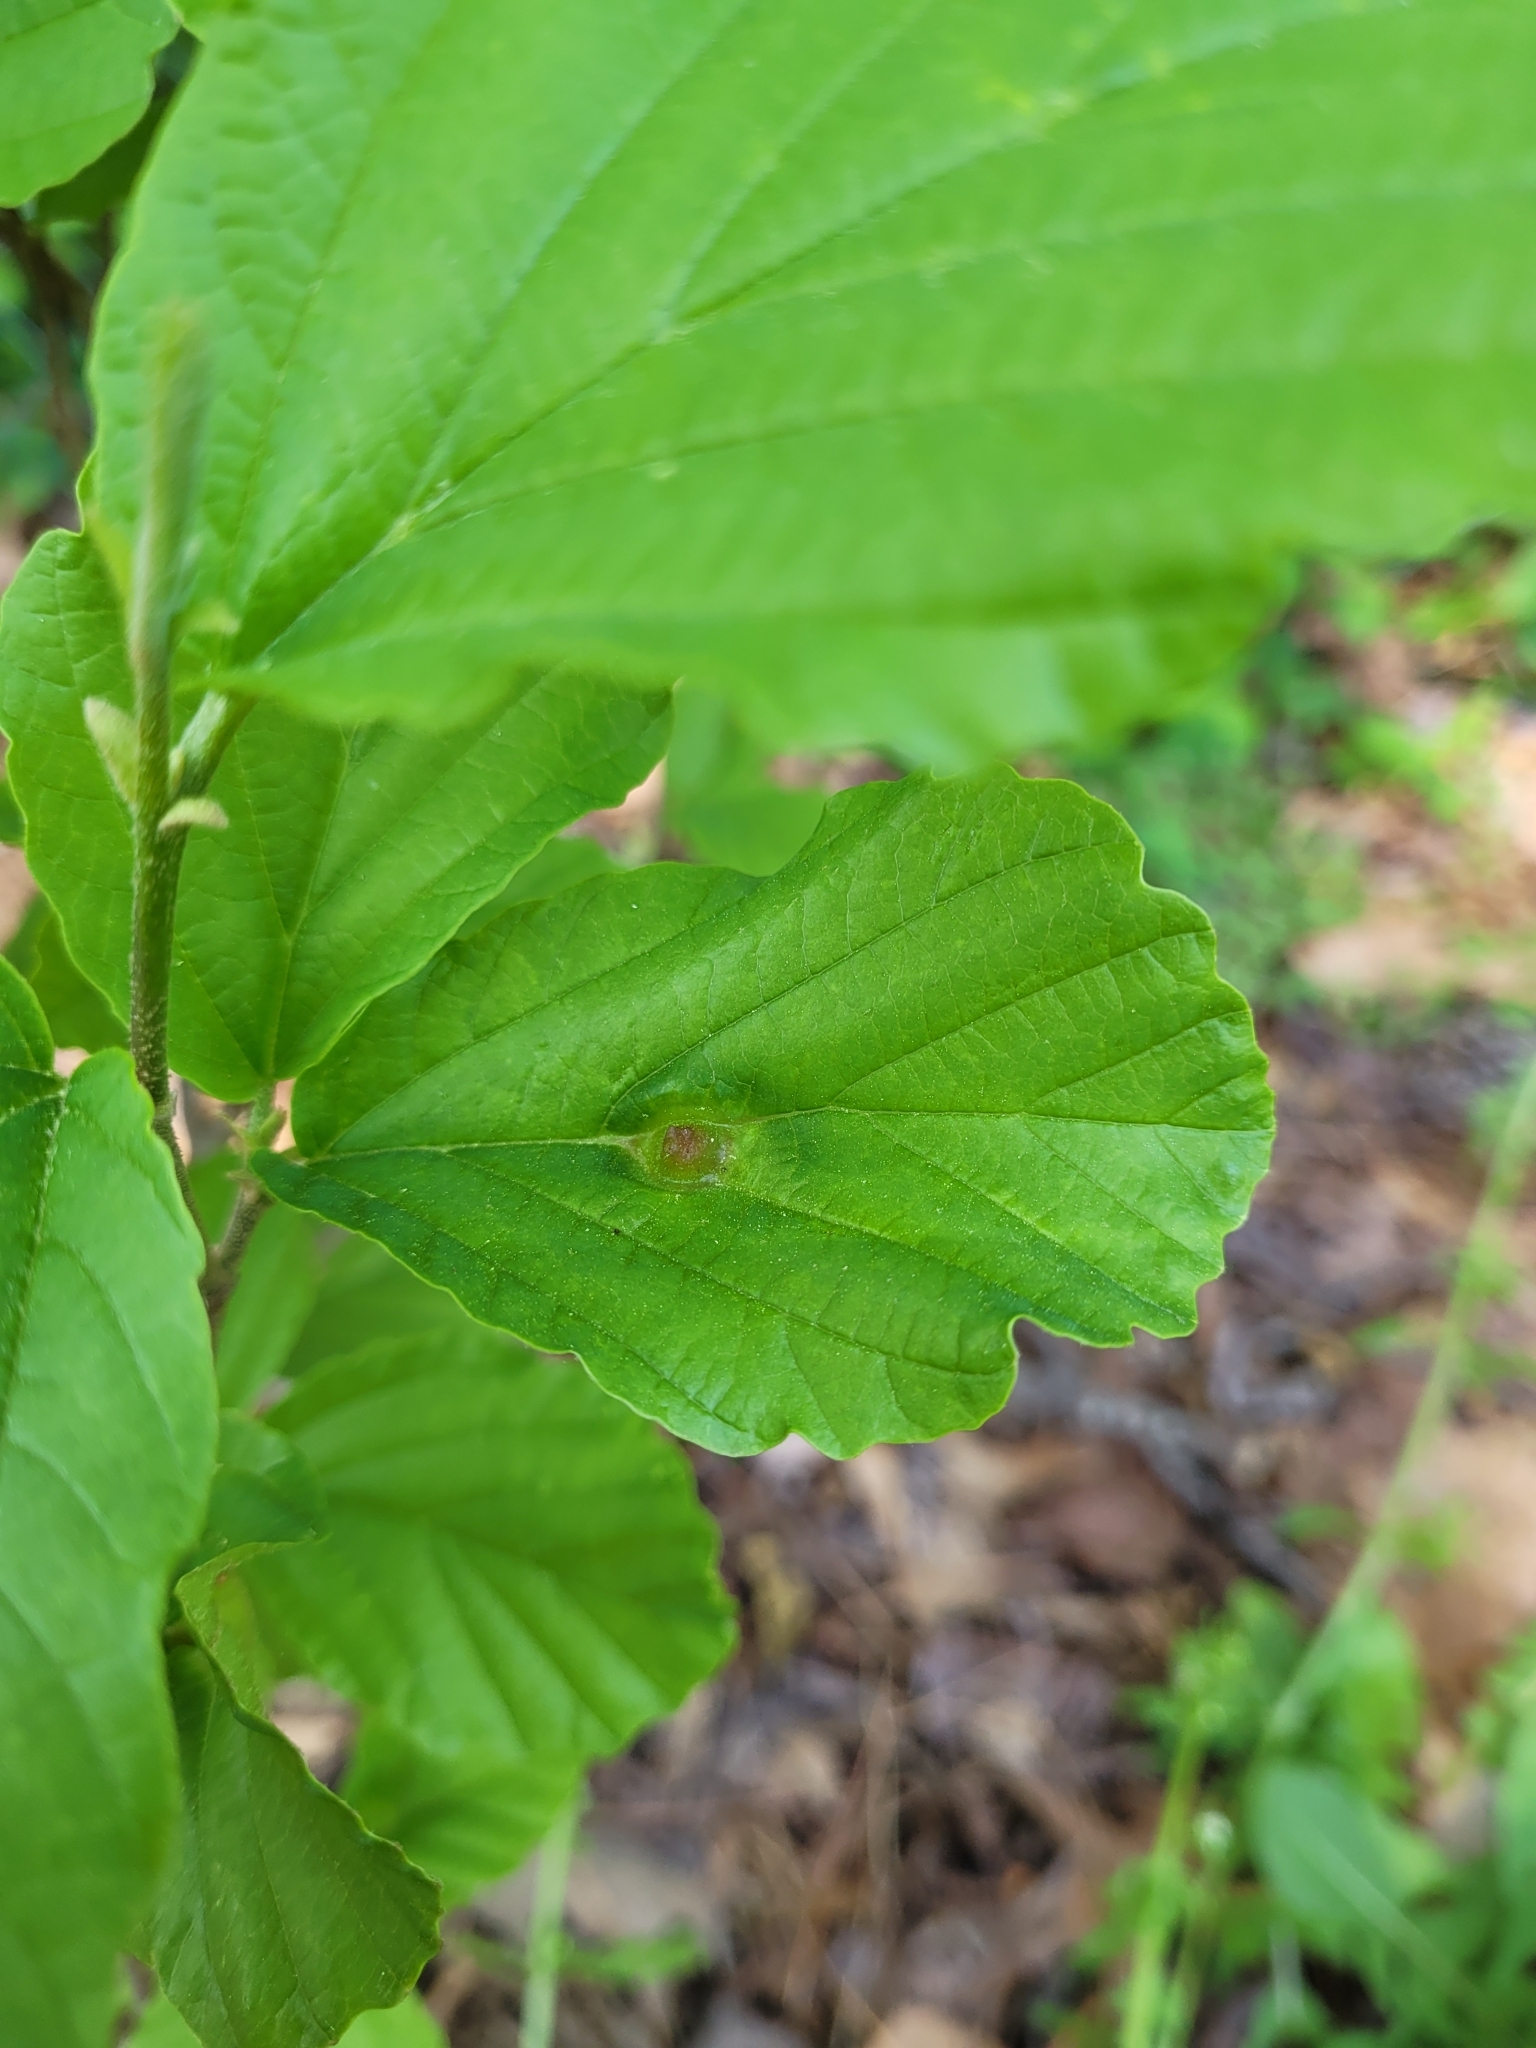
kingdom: Animalia
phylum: Arthropoda
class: Insecta
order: Hemiptera
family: Aphididae
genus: Hormaphis
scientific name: Hormaphis hamamelidis
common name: Witch-hazel cone gall aphid
